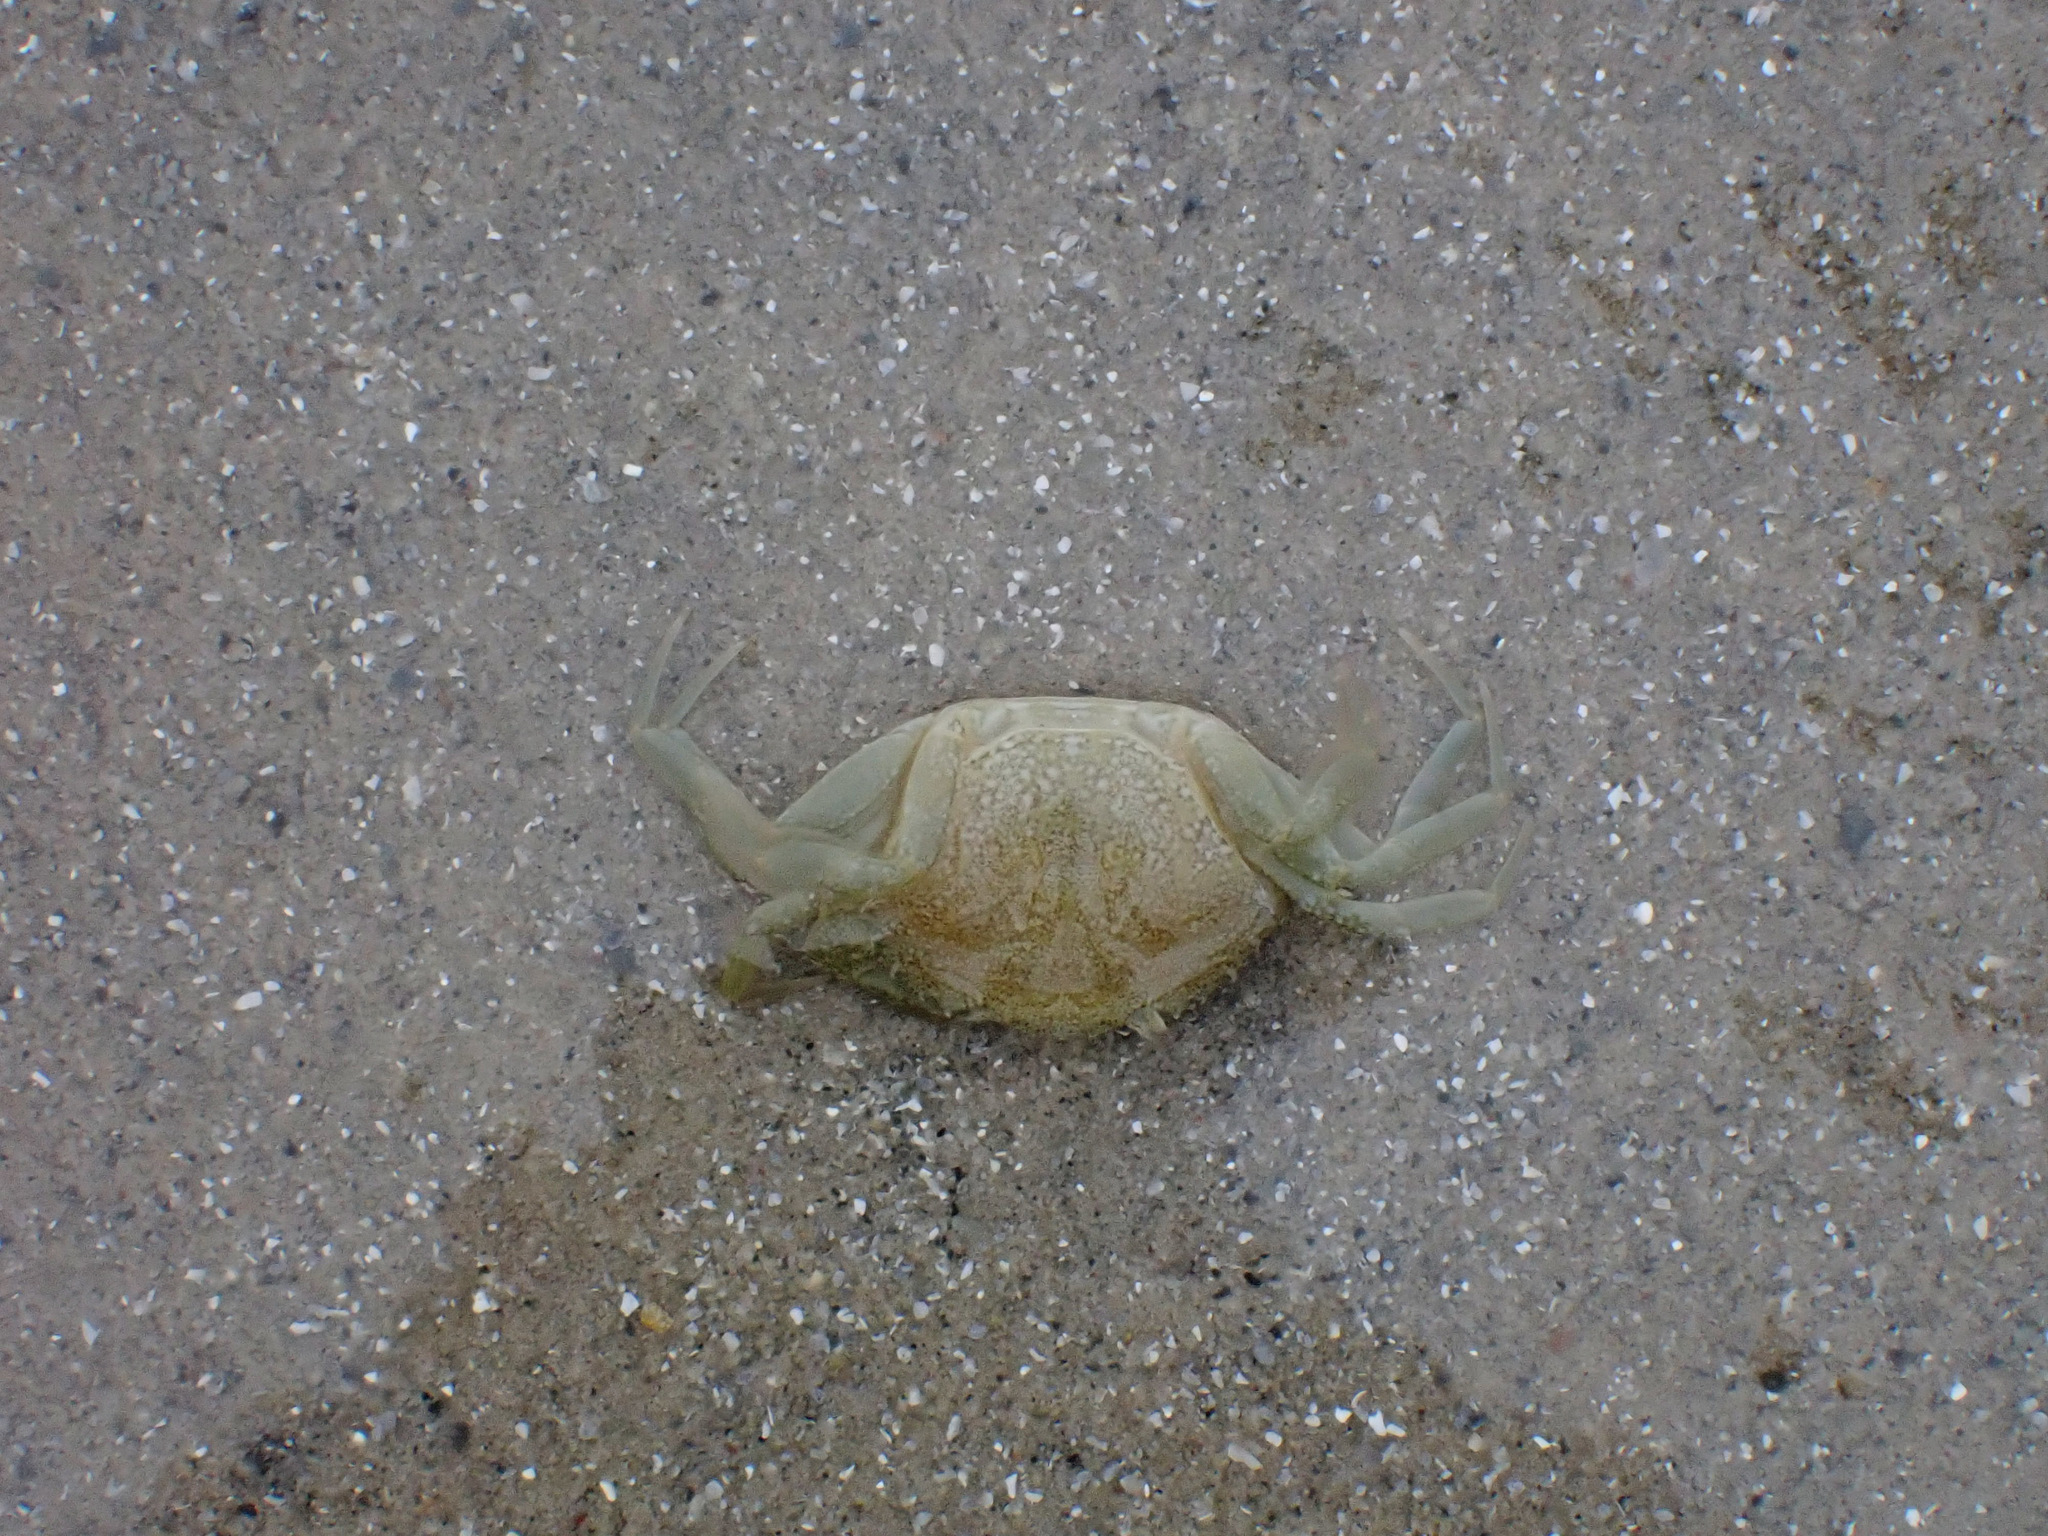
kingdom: Animalia
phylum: Arthropoda
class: Malacostraca
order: Decapoda
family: Carcinidae
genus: Carcinus
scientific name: Carcinus maenas
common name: European green crab
